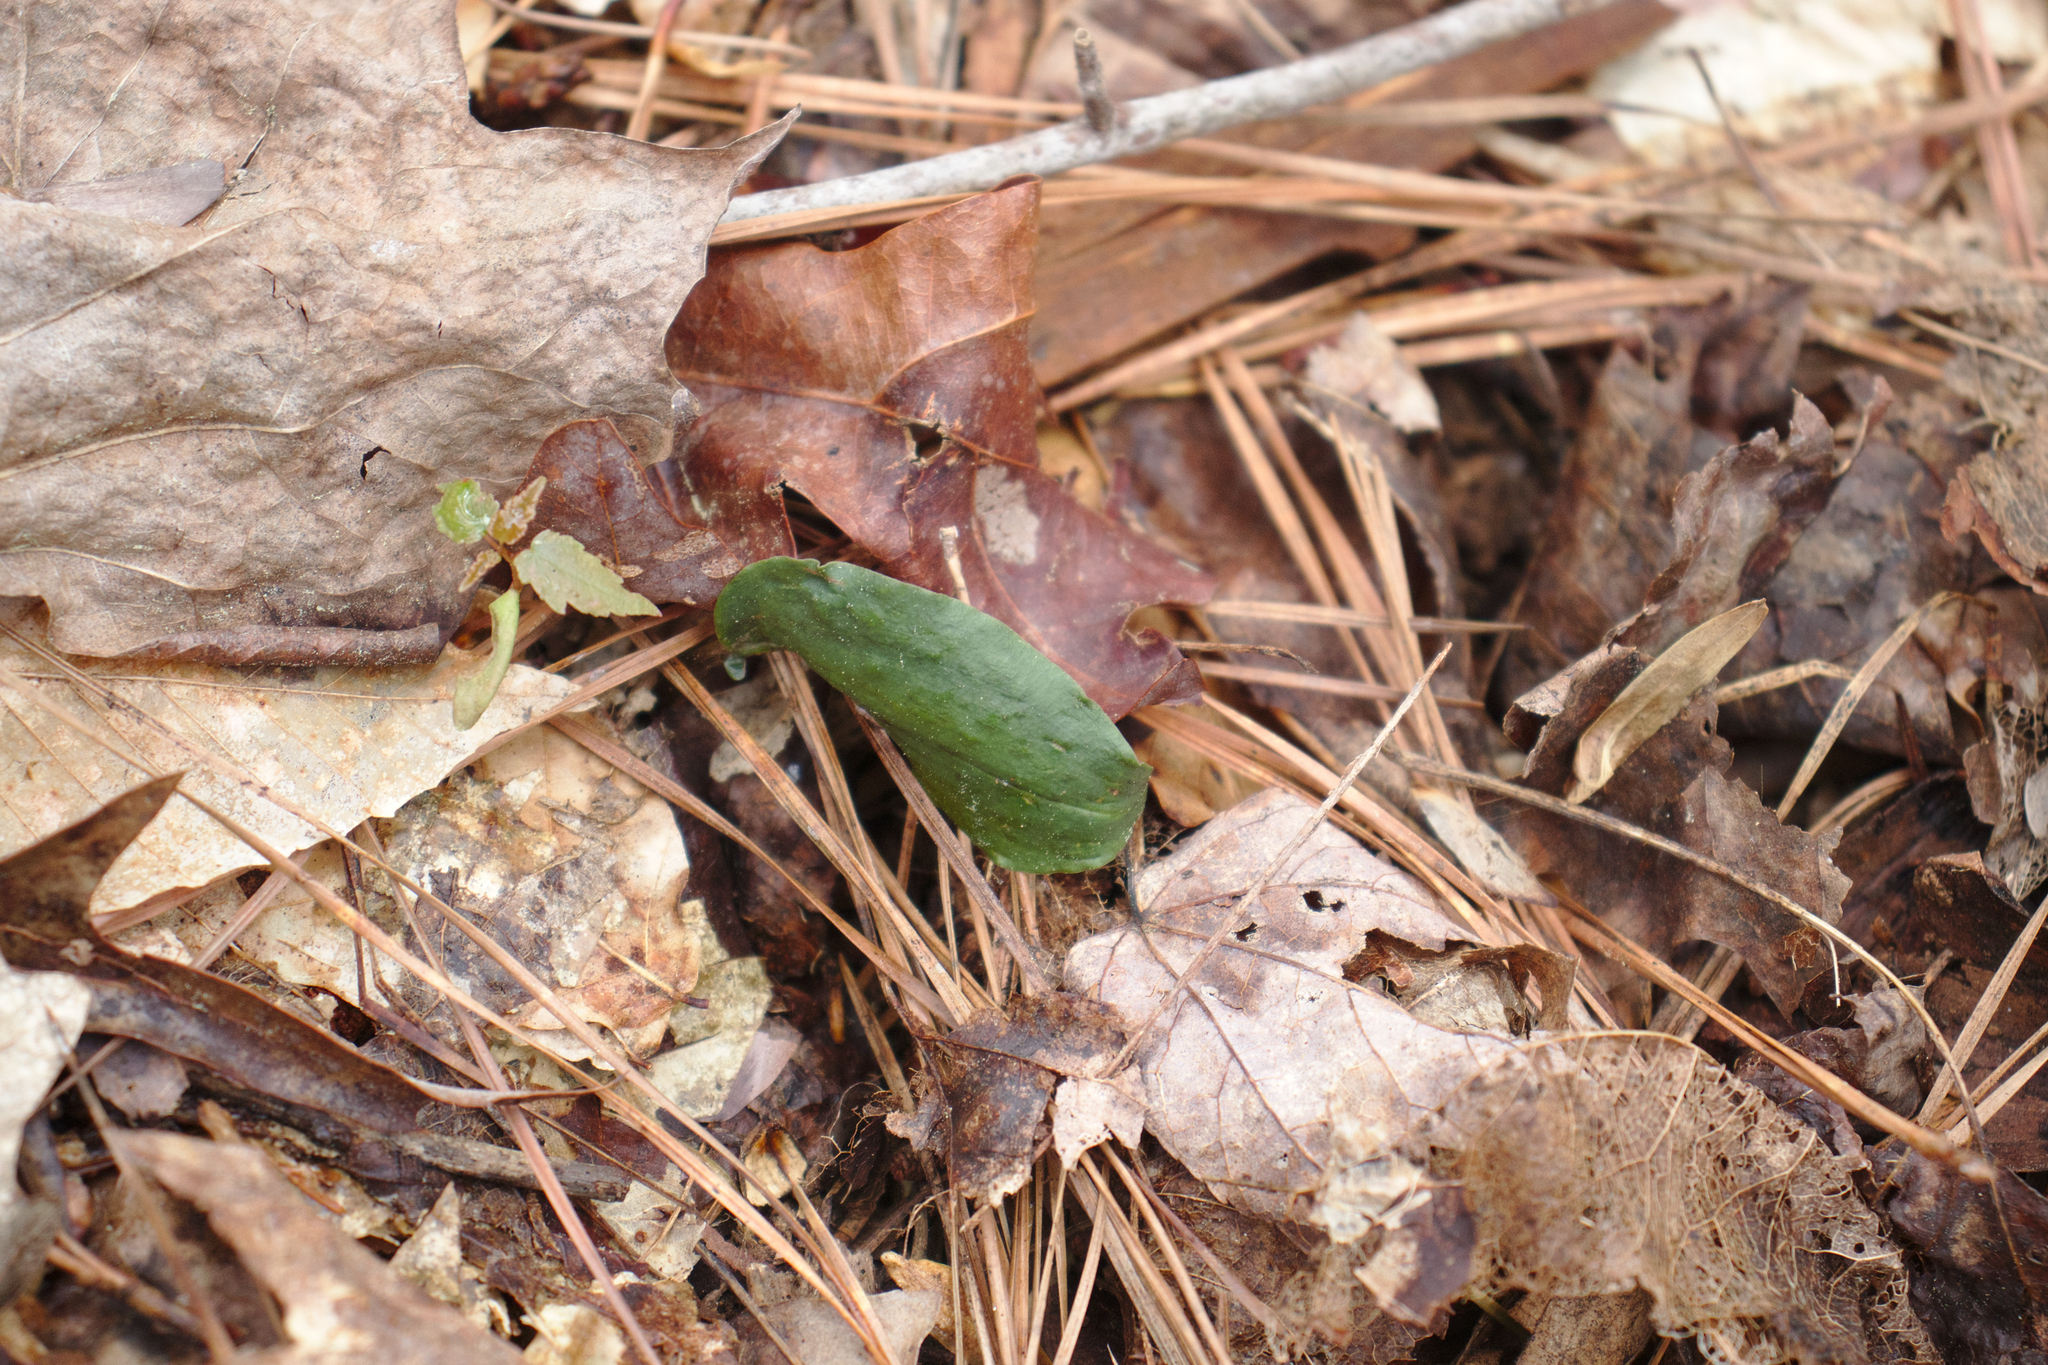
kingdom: Plantae
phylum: Tracheophyta
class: Liliopsida
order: Asparagales
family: Orchidaceae
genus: Tipularia
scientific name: Tipularia discolor
